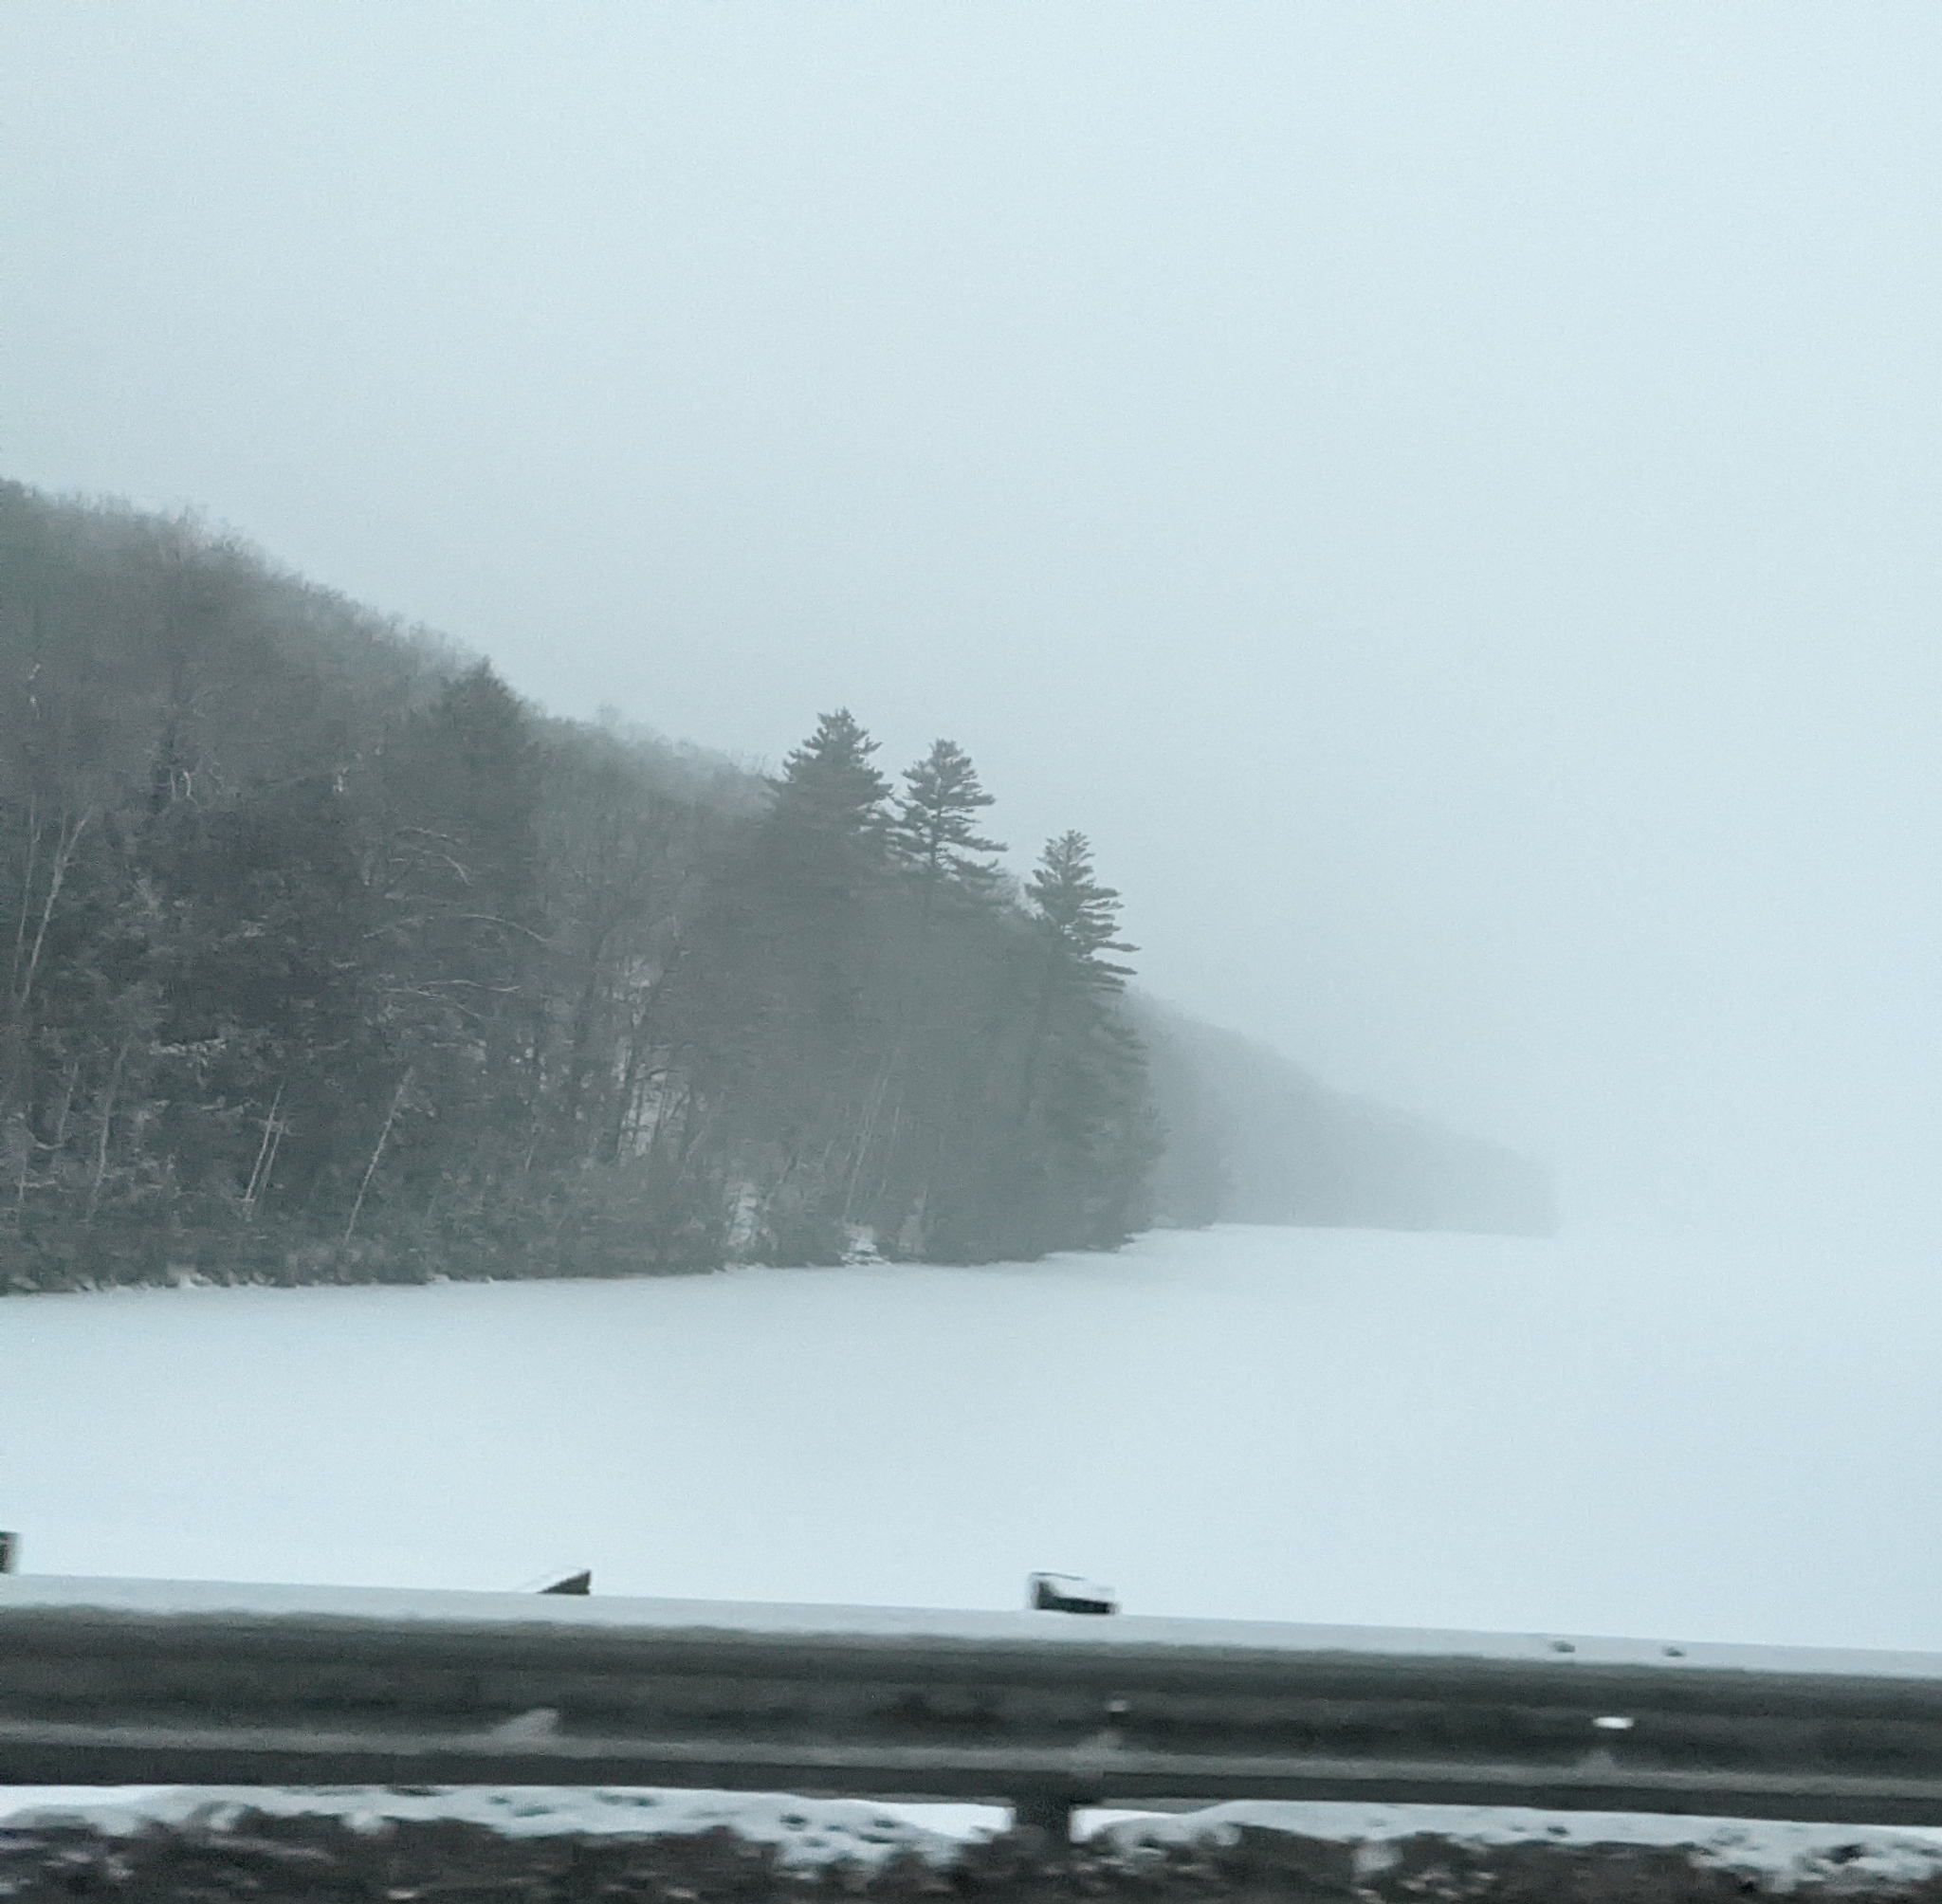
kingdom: Plantae
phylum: Tracheophyta
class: Pinopsida
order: Pinales
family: Pinaceae
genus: Pinus
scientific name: Pinus strobus
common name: Weymouth pine
